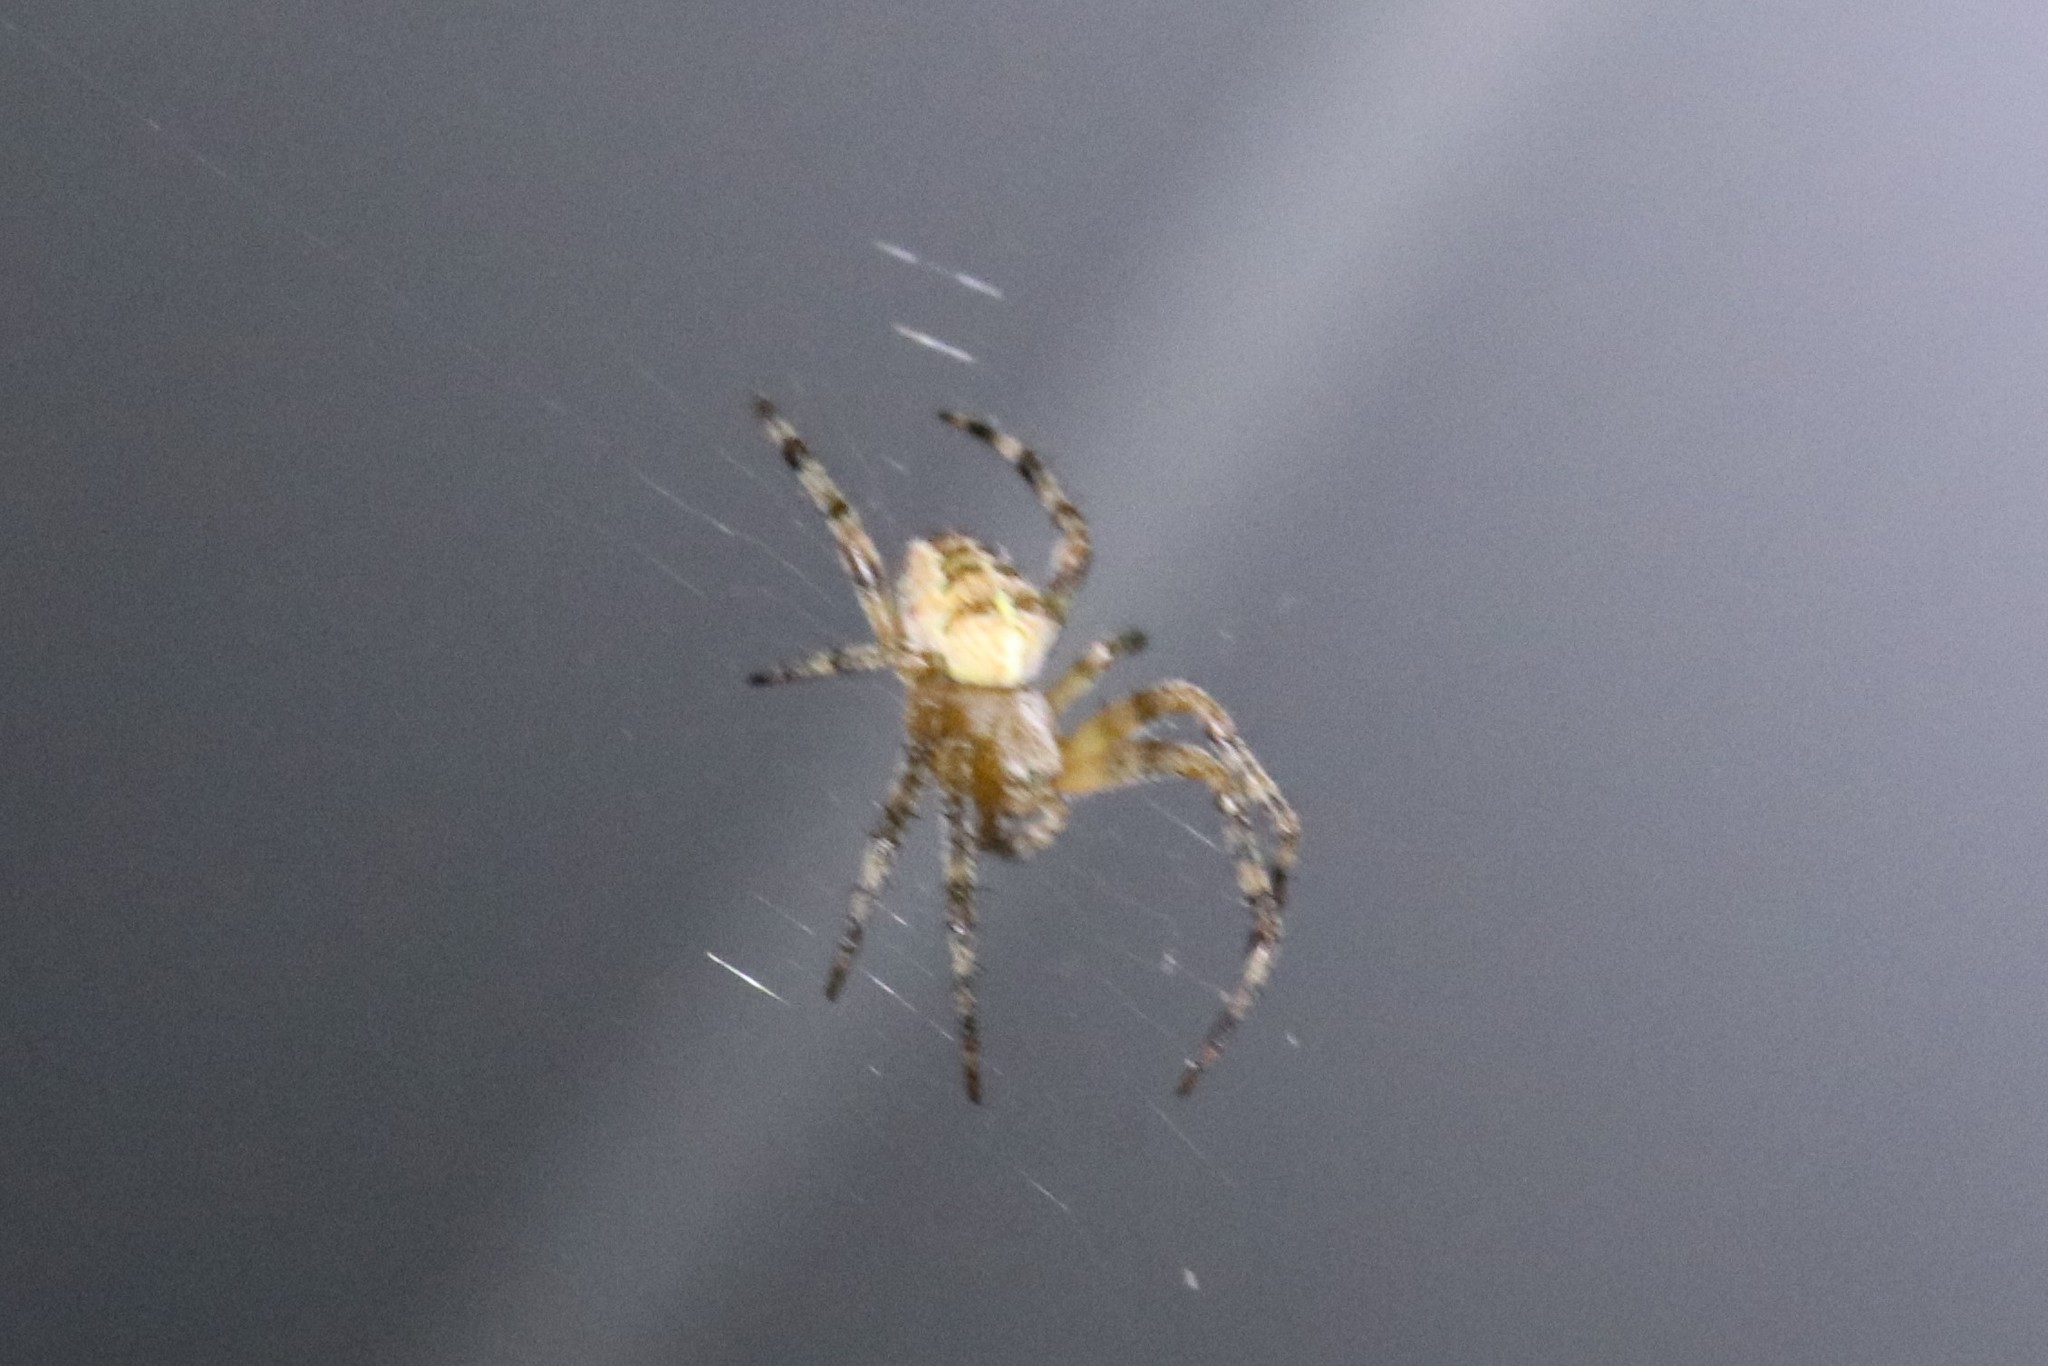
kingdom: Animalia
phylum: Arthropoda
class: Arachnida
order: Araneae
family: Araneidae
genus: Araneus
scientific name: Araneus diadematus
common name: Cross orbweaver
